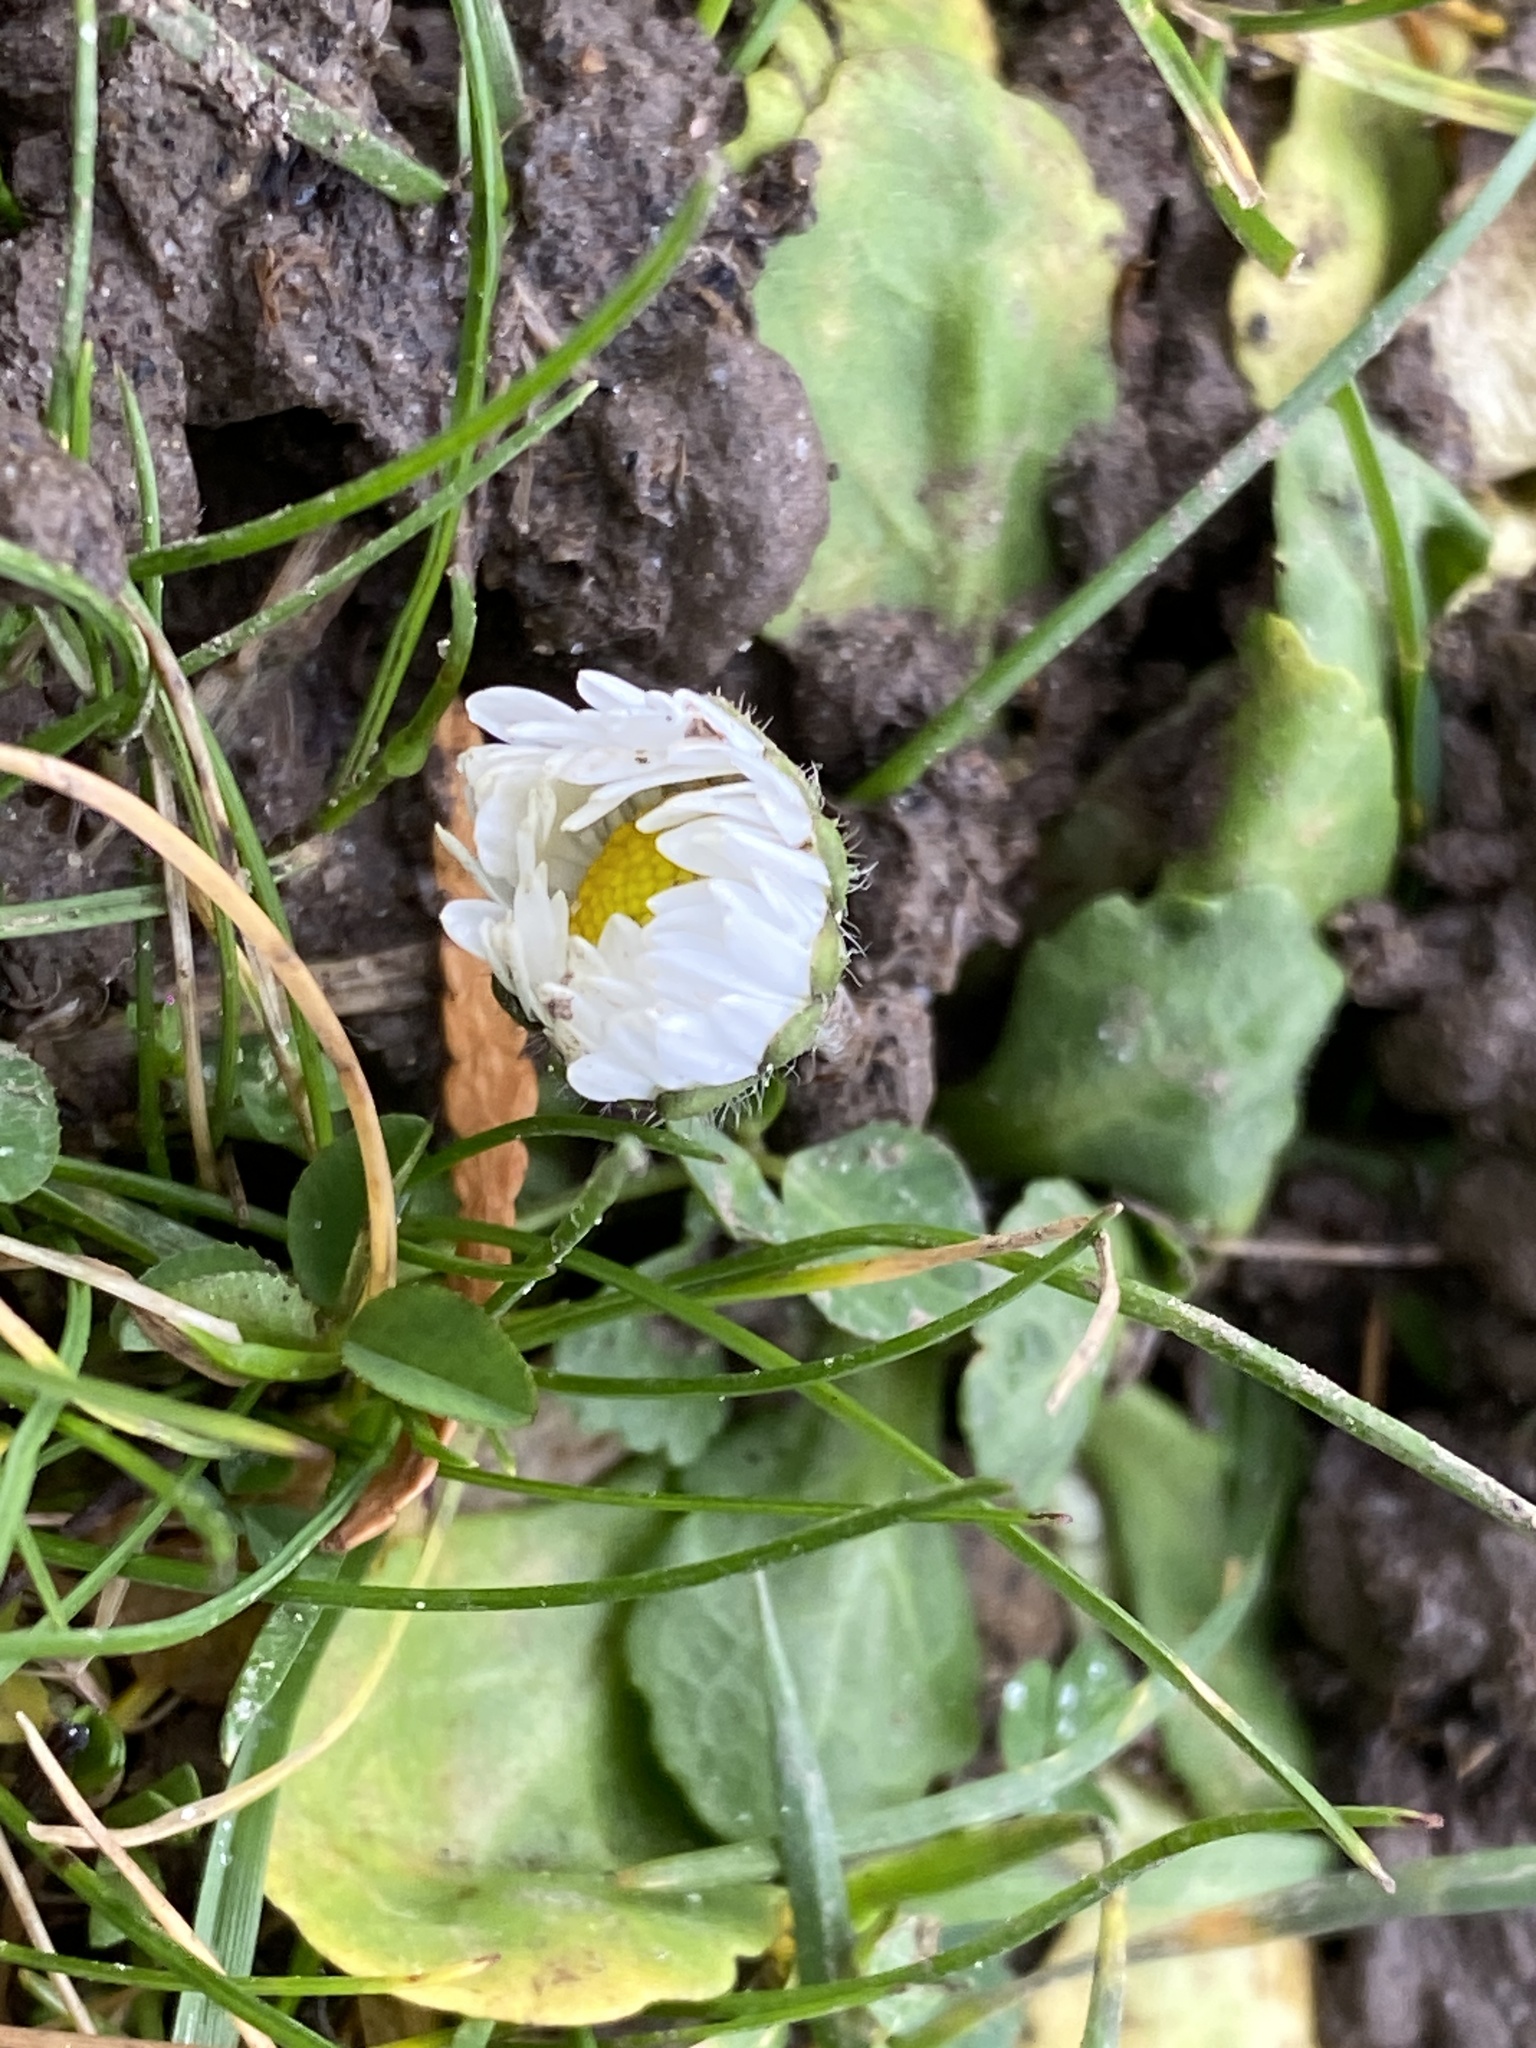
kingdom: Plantae
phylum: Tracheophyta
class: Magnoliopsida
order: Asterales
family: Asteraceae
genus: Bellis
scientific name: Bellis perennis
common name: Lawndaisy
